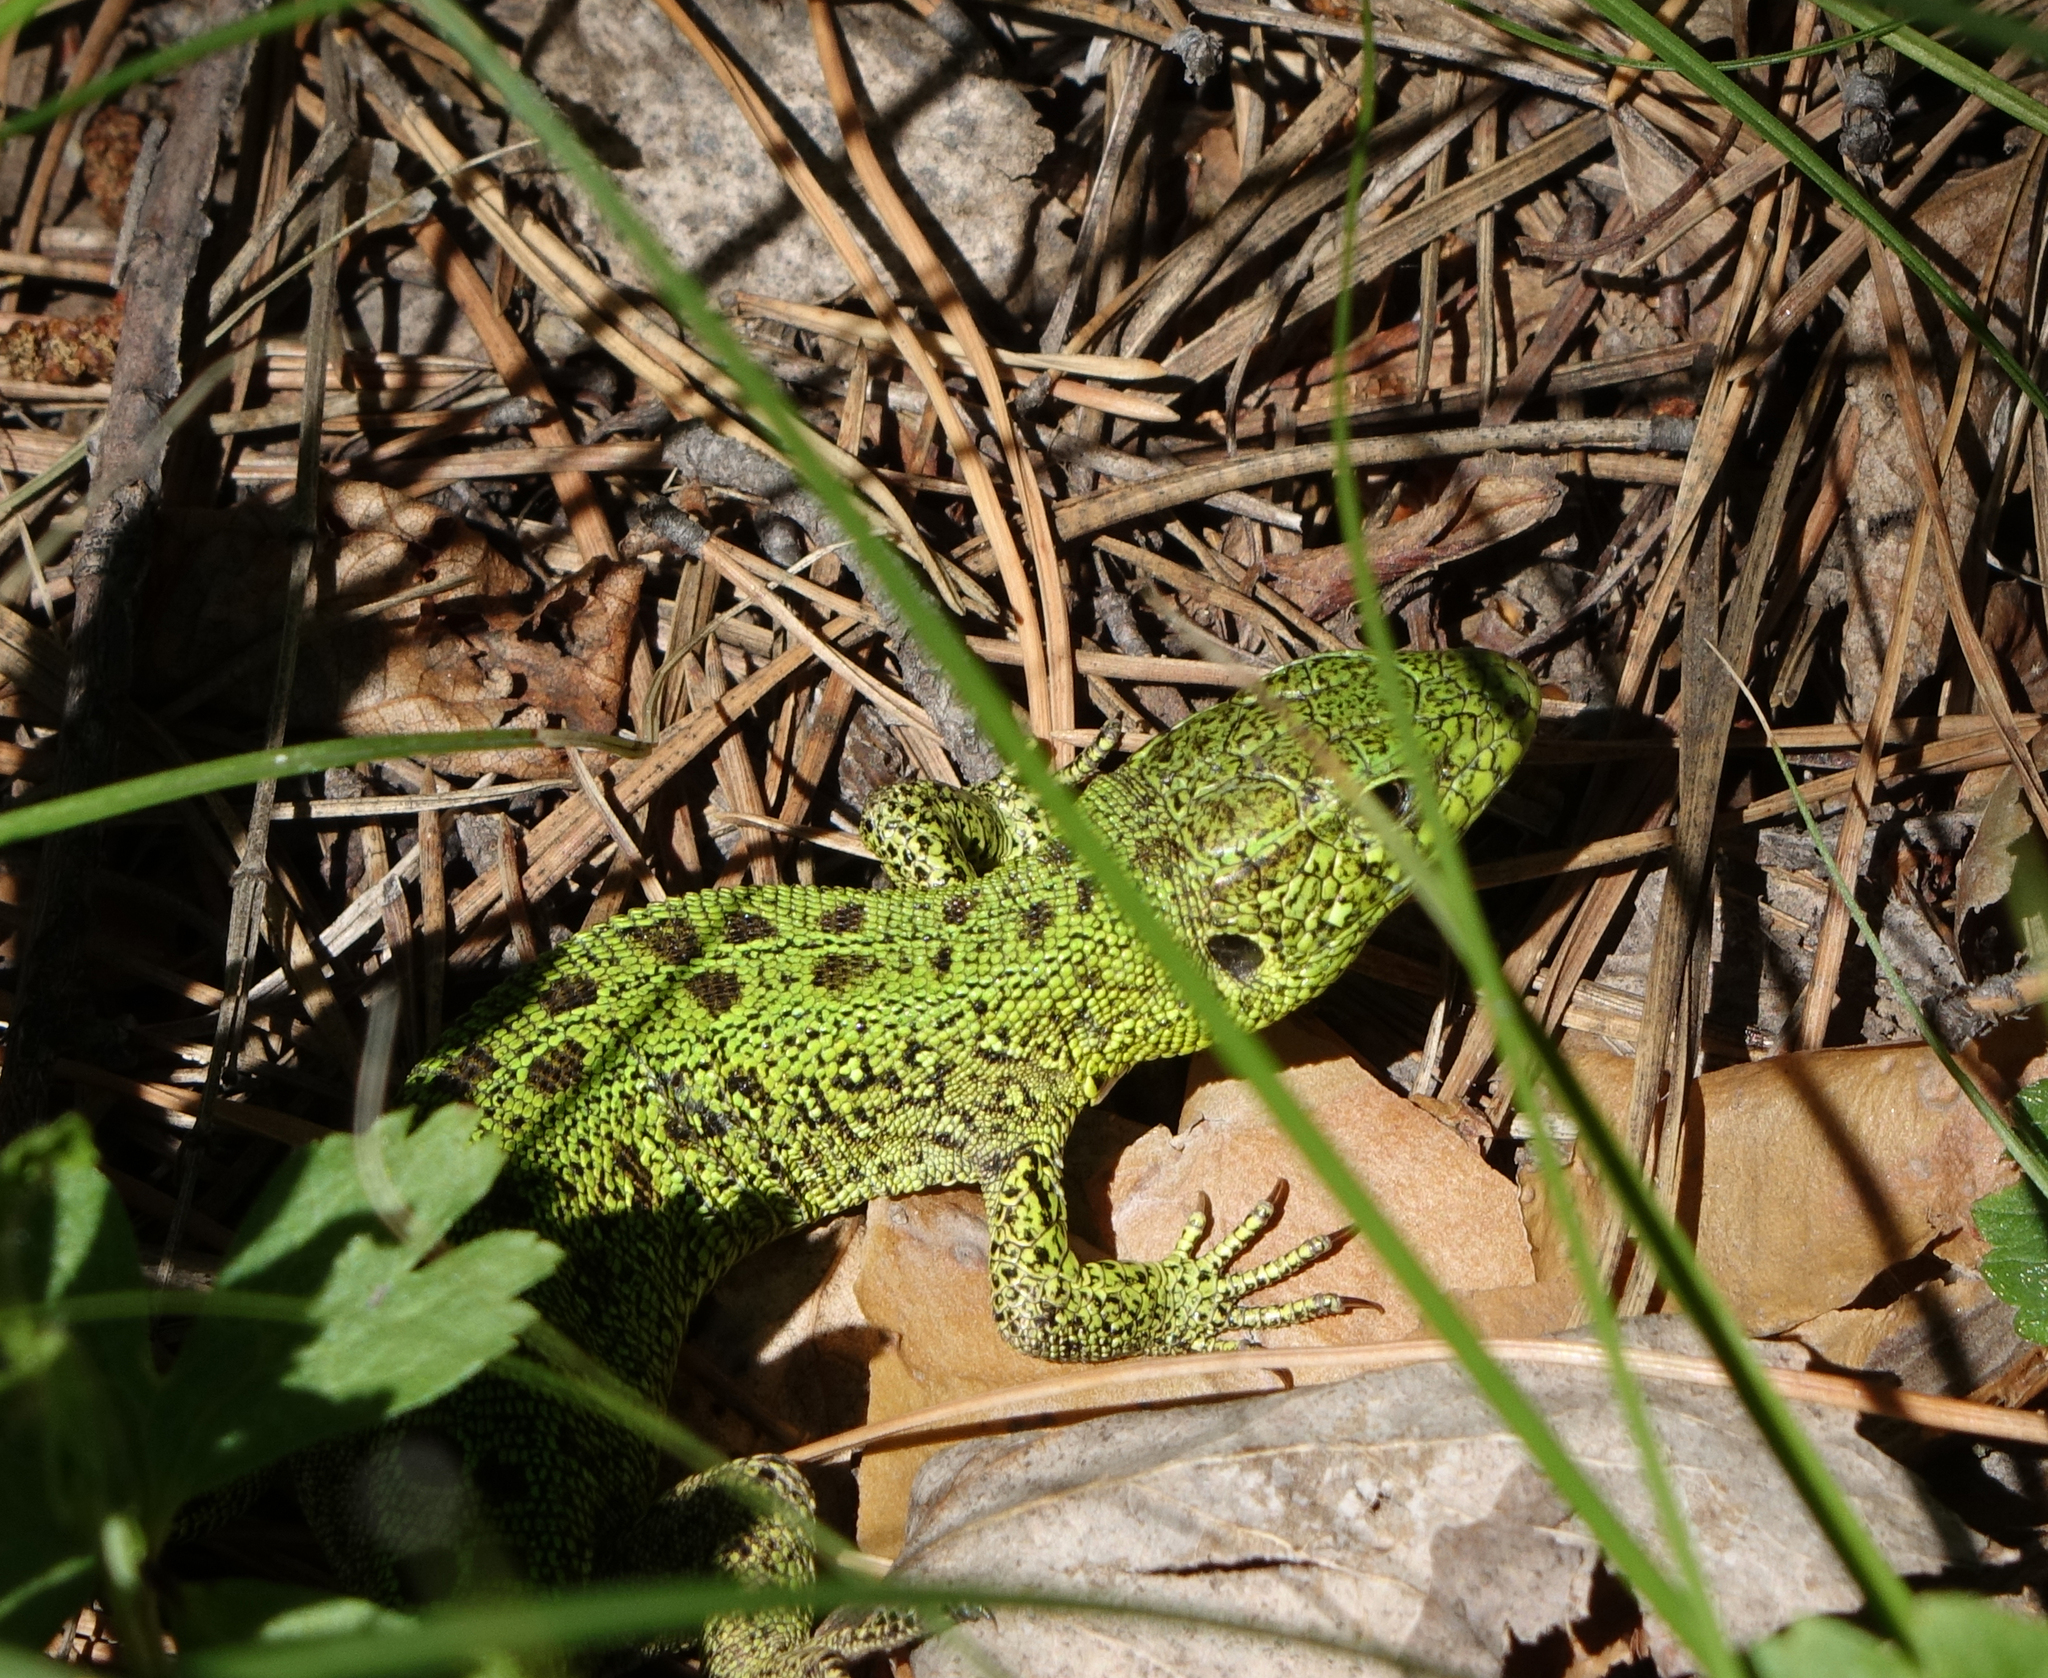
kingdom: Animalia
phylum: Chordata
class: Squamata
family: Lacertidae
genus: Lacerta
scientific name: Lacerta agilis
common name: Sand lizard
